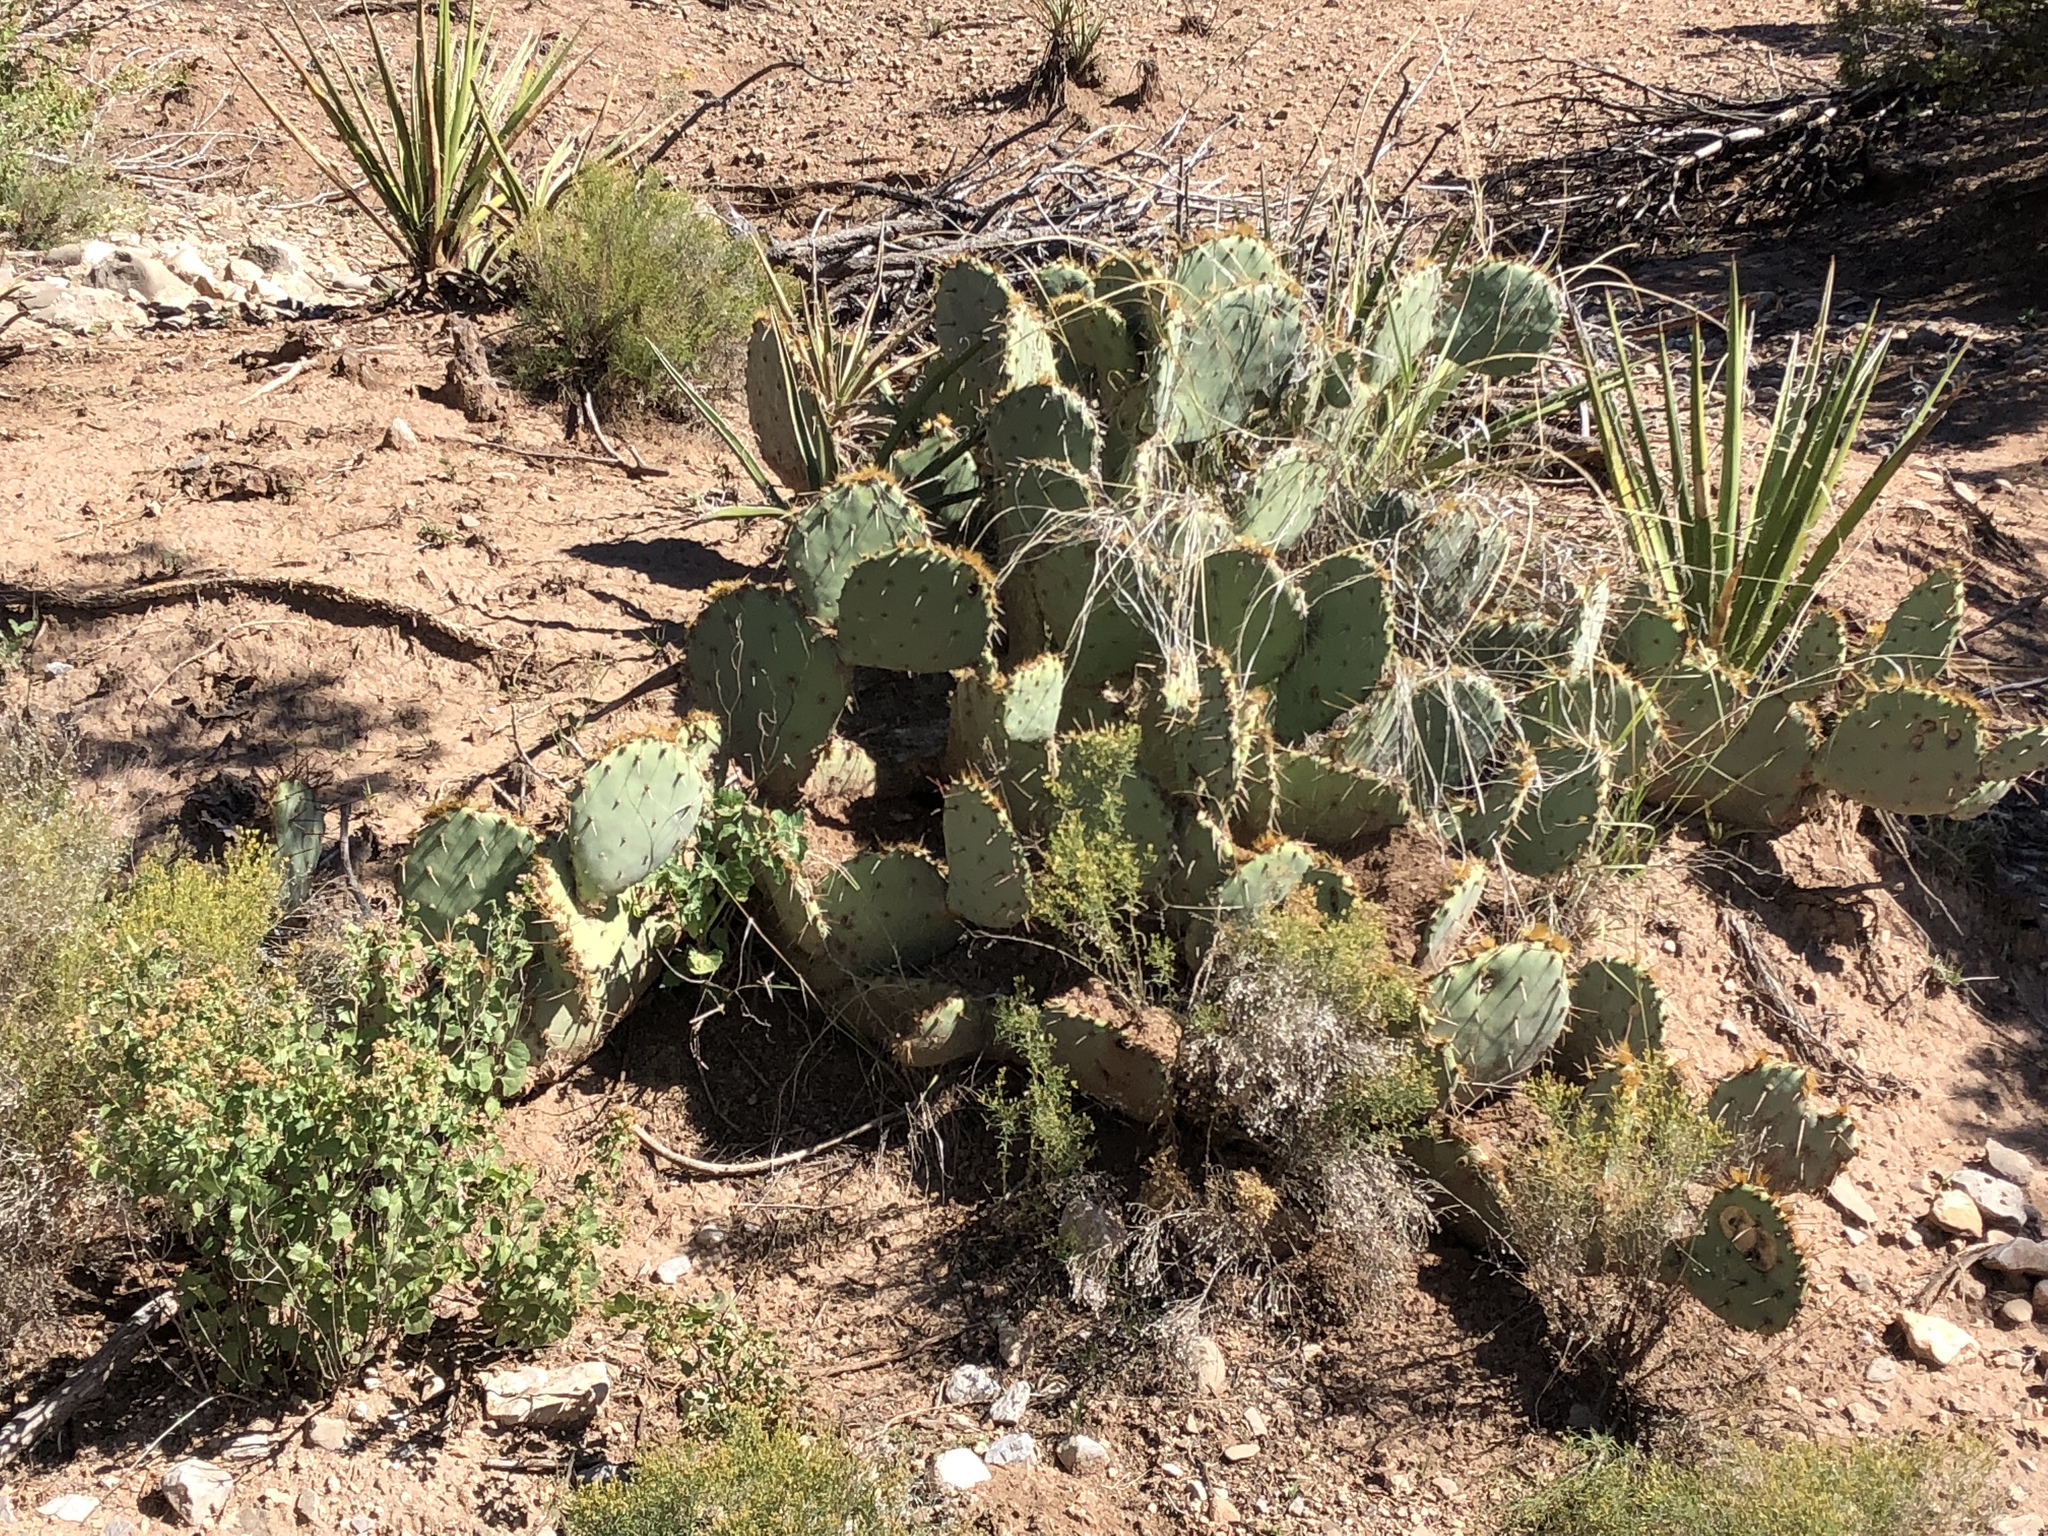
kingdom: Plantae
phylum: Tracheophyta
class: Magnoliopsida
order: Caryophyllales
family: Cactaceae
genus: Opuntia
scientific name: Opuntia engelmannii
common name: Cactus-apple
